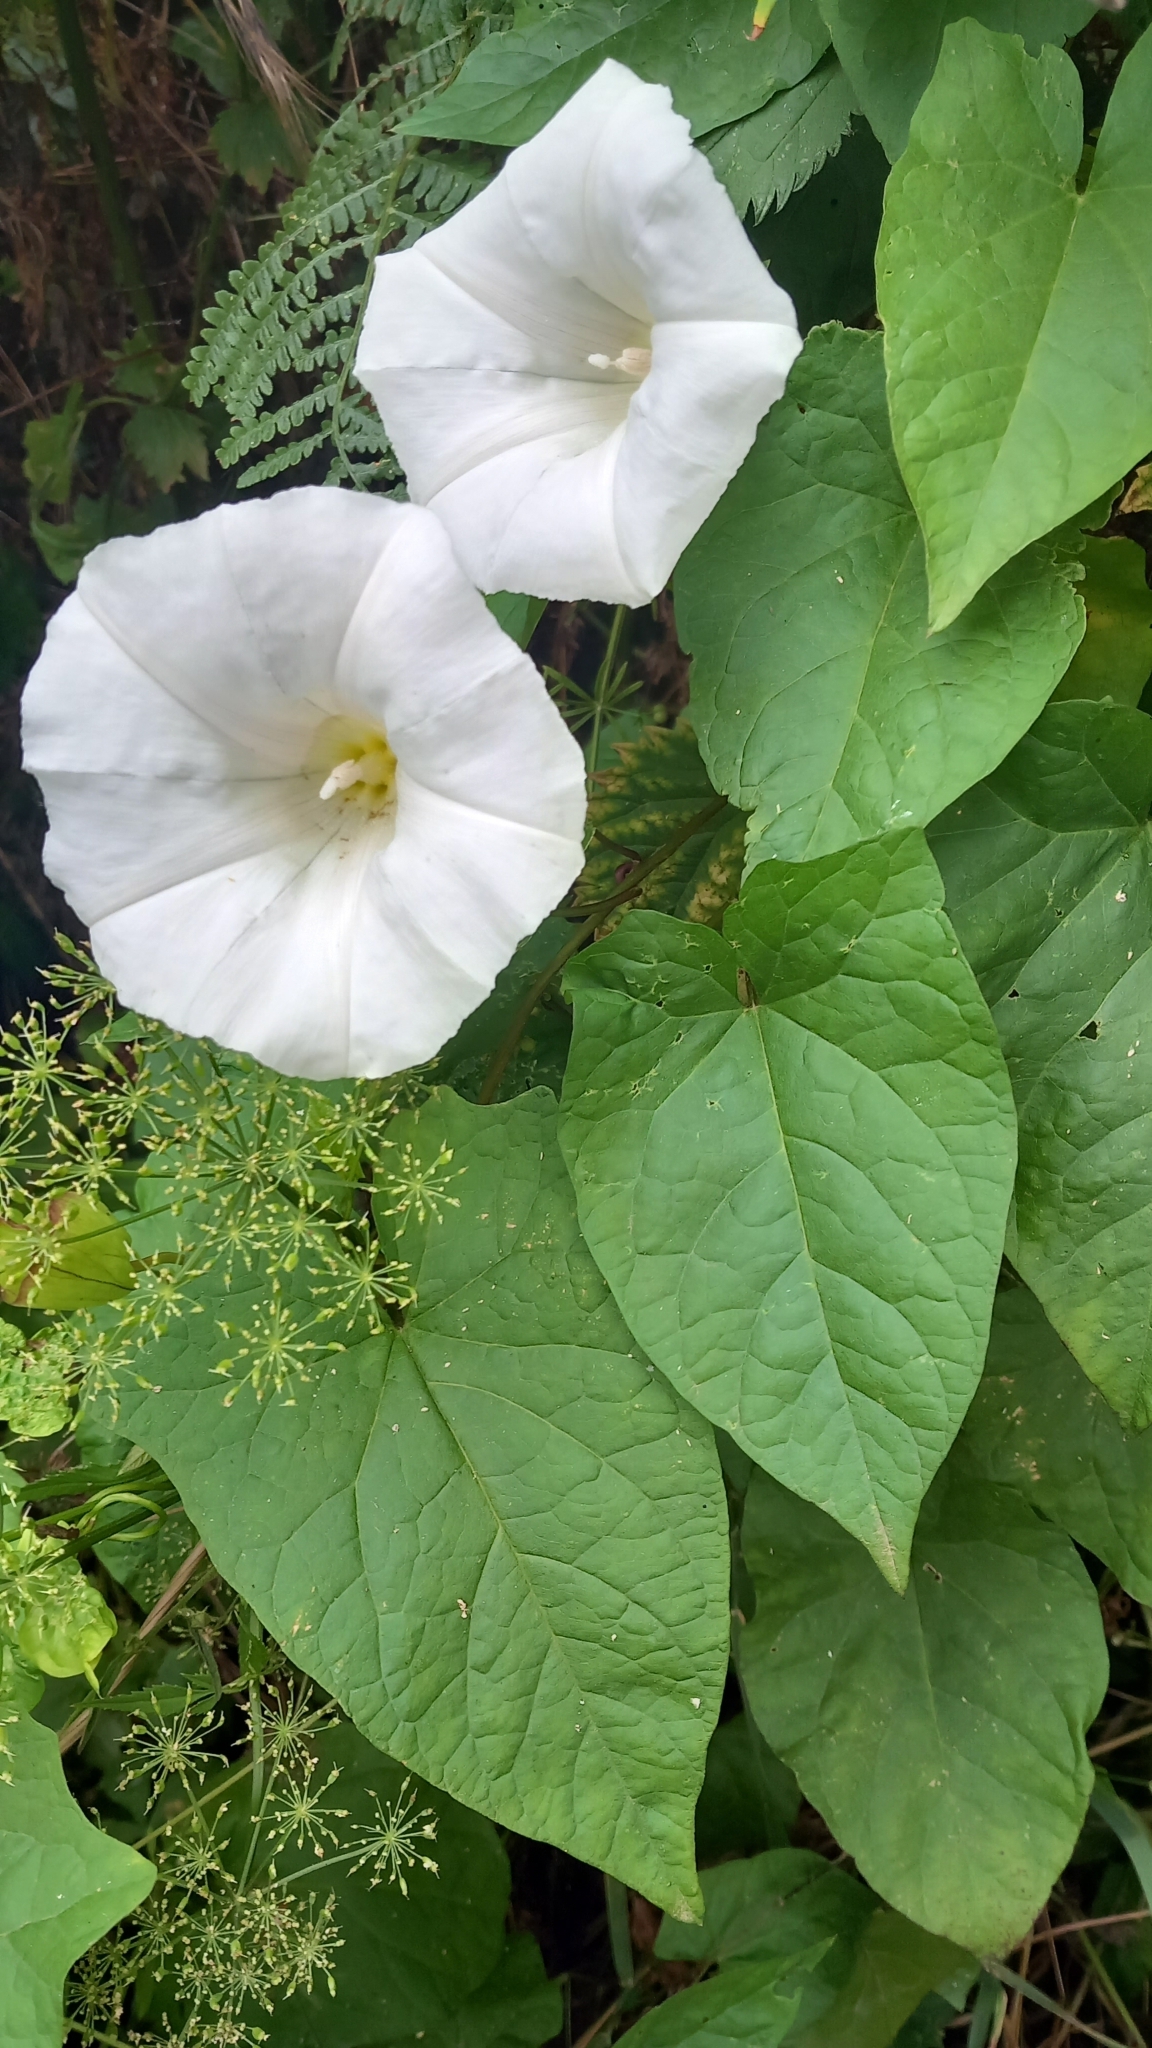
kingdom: Plantae
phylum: Tracheophyta
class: Magnoliopsida
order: Solanales
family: Convolvulaceae
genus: Calystegia
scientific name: Calystegia sepium
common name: Hedge bindweed
